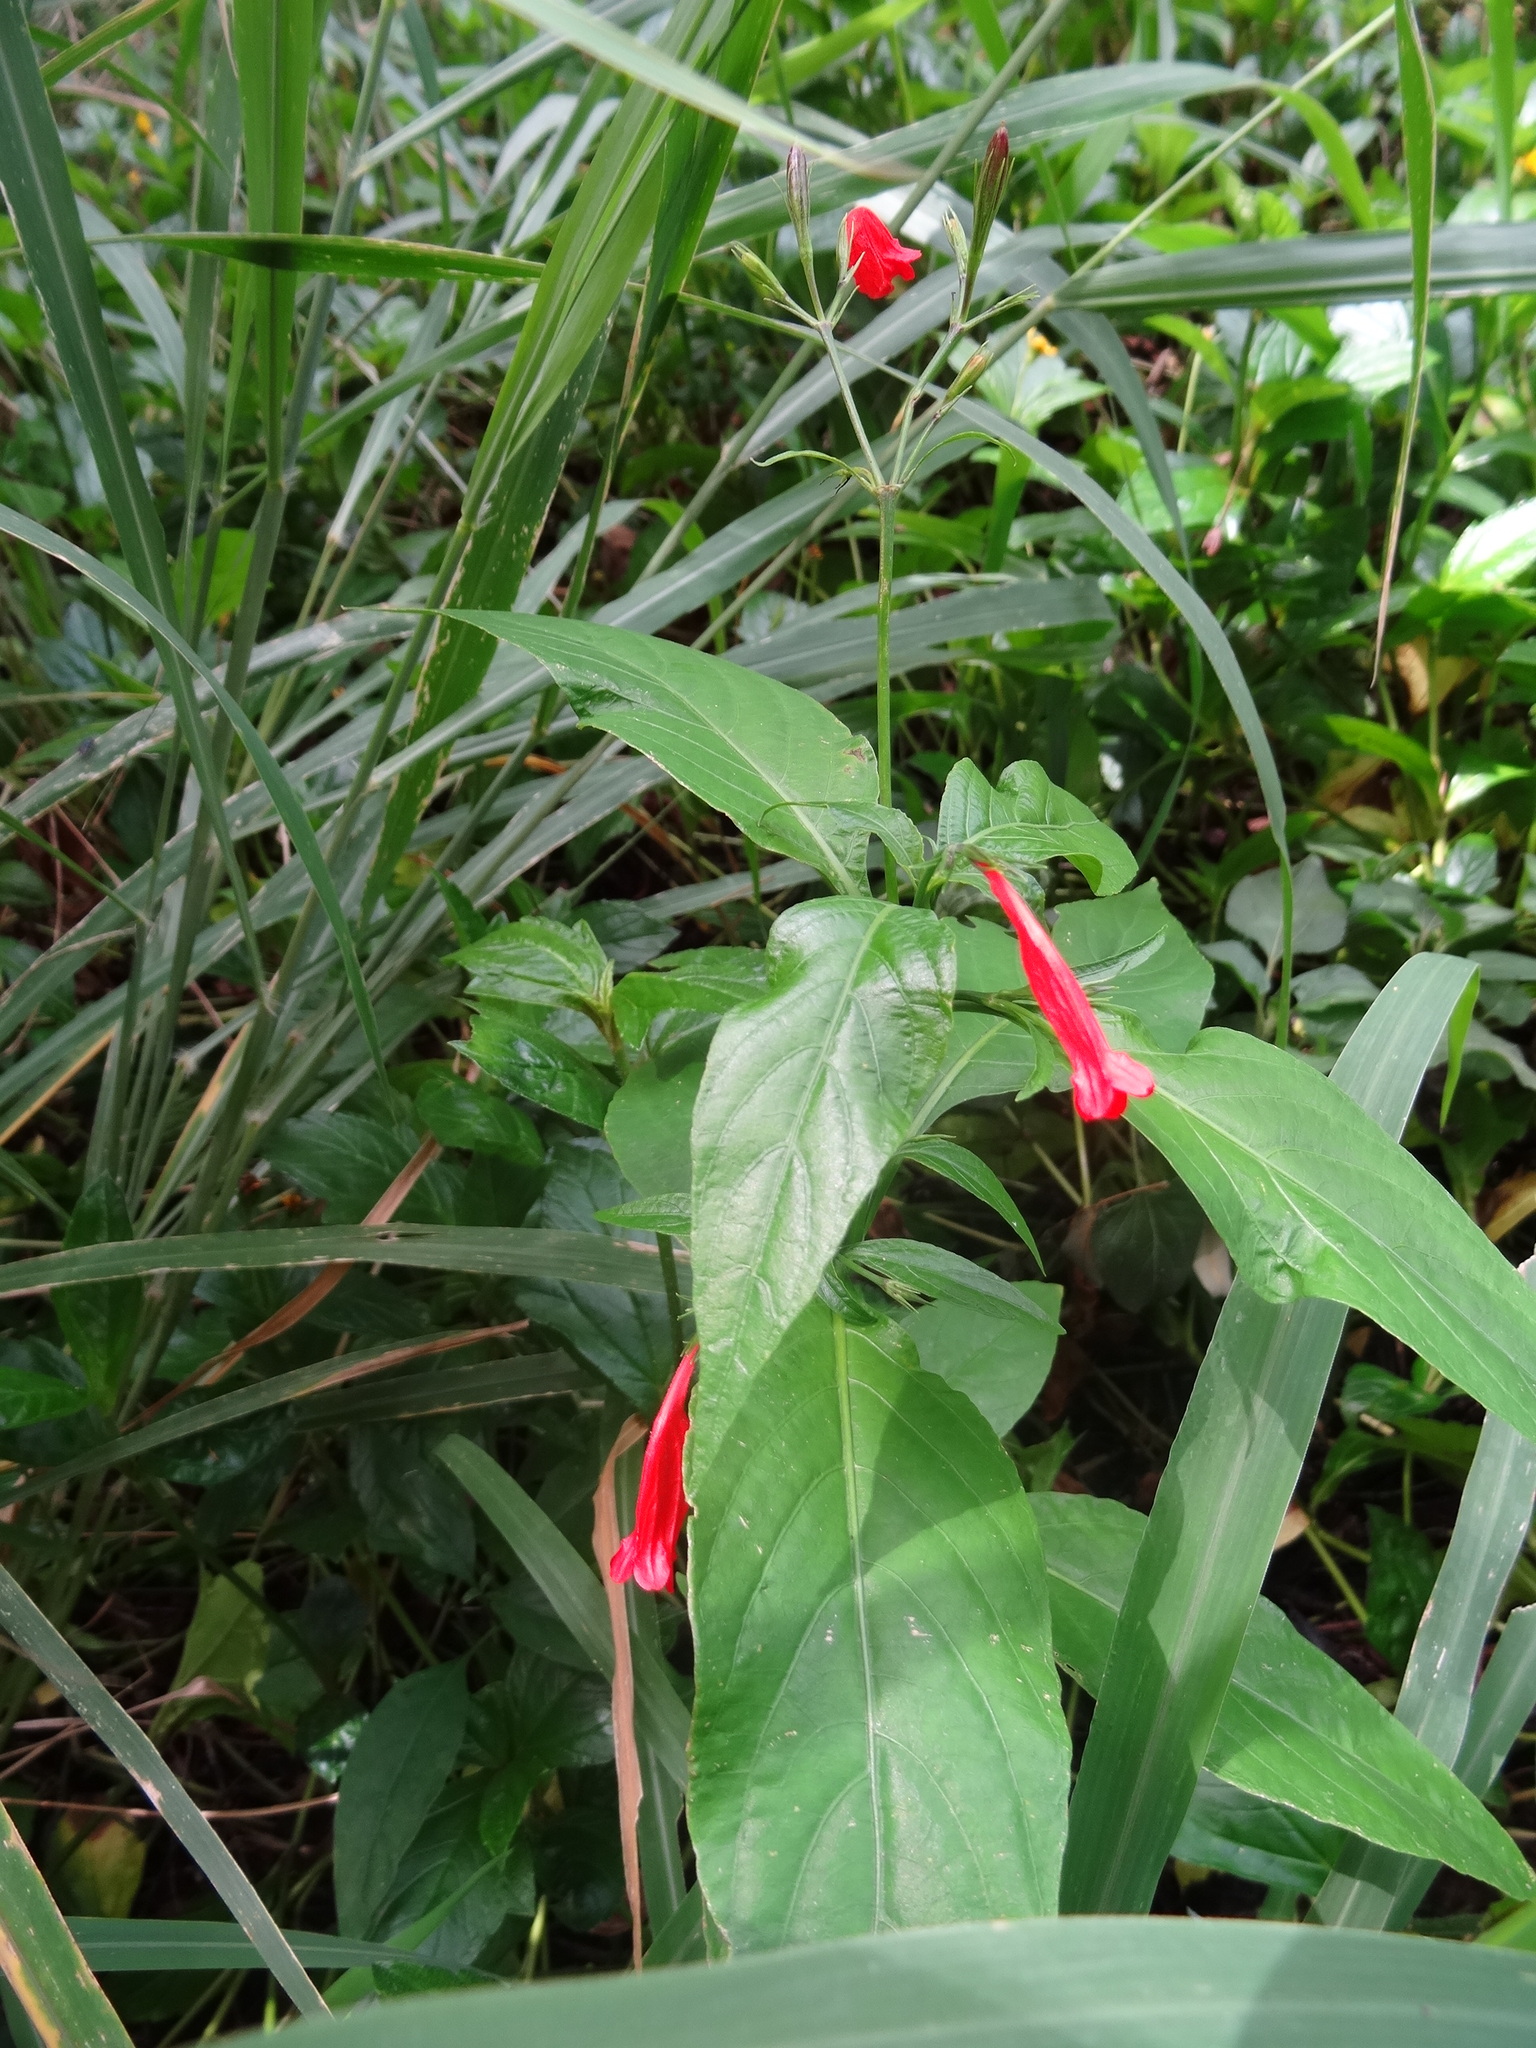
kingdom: Plantae
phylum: Tracheophyta
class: Magnoliopsida
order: Lamiales
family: Acanthaceae
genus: Ruellia
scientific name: Ruellia brevifolia
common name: Tropical wild petunia
